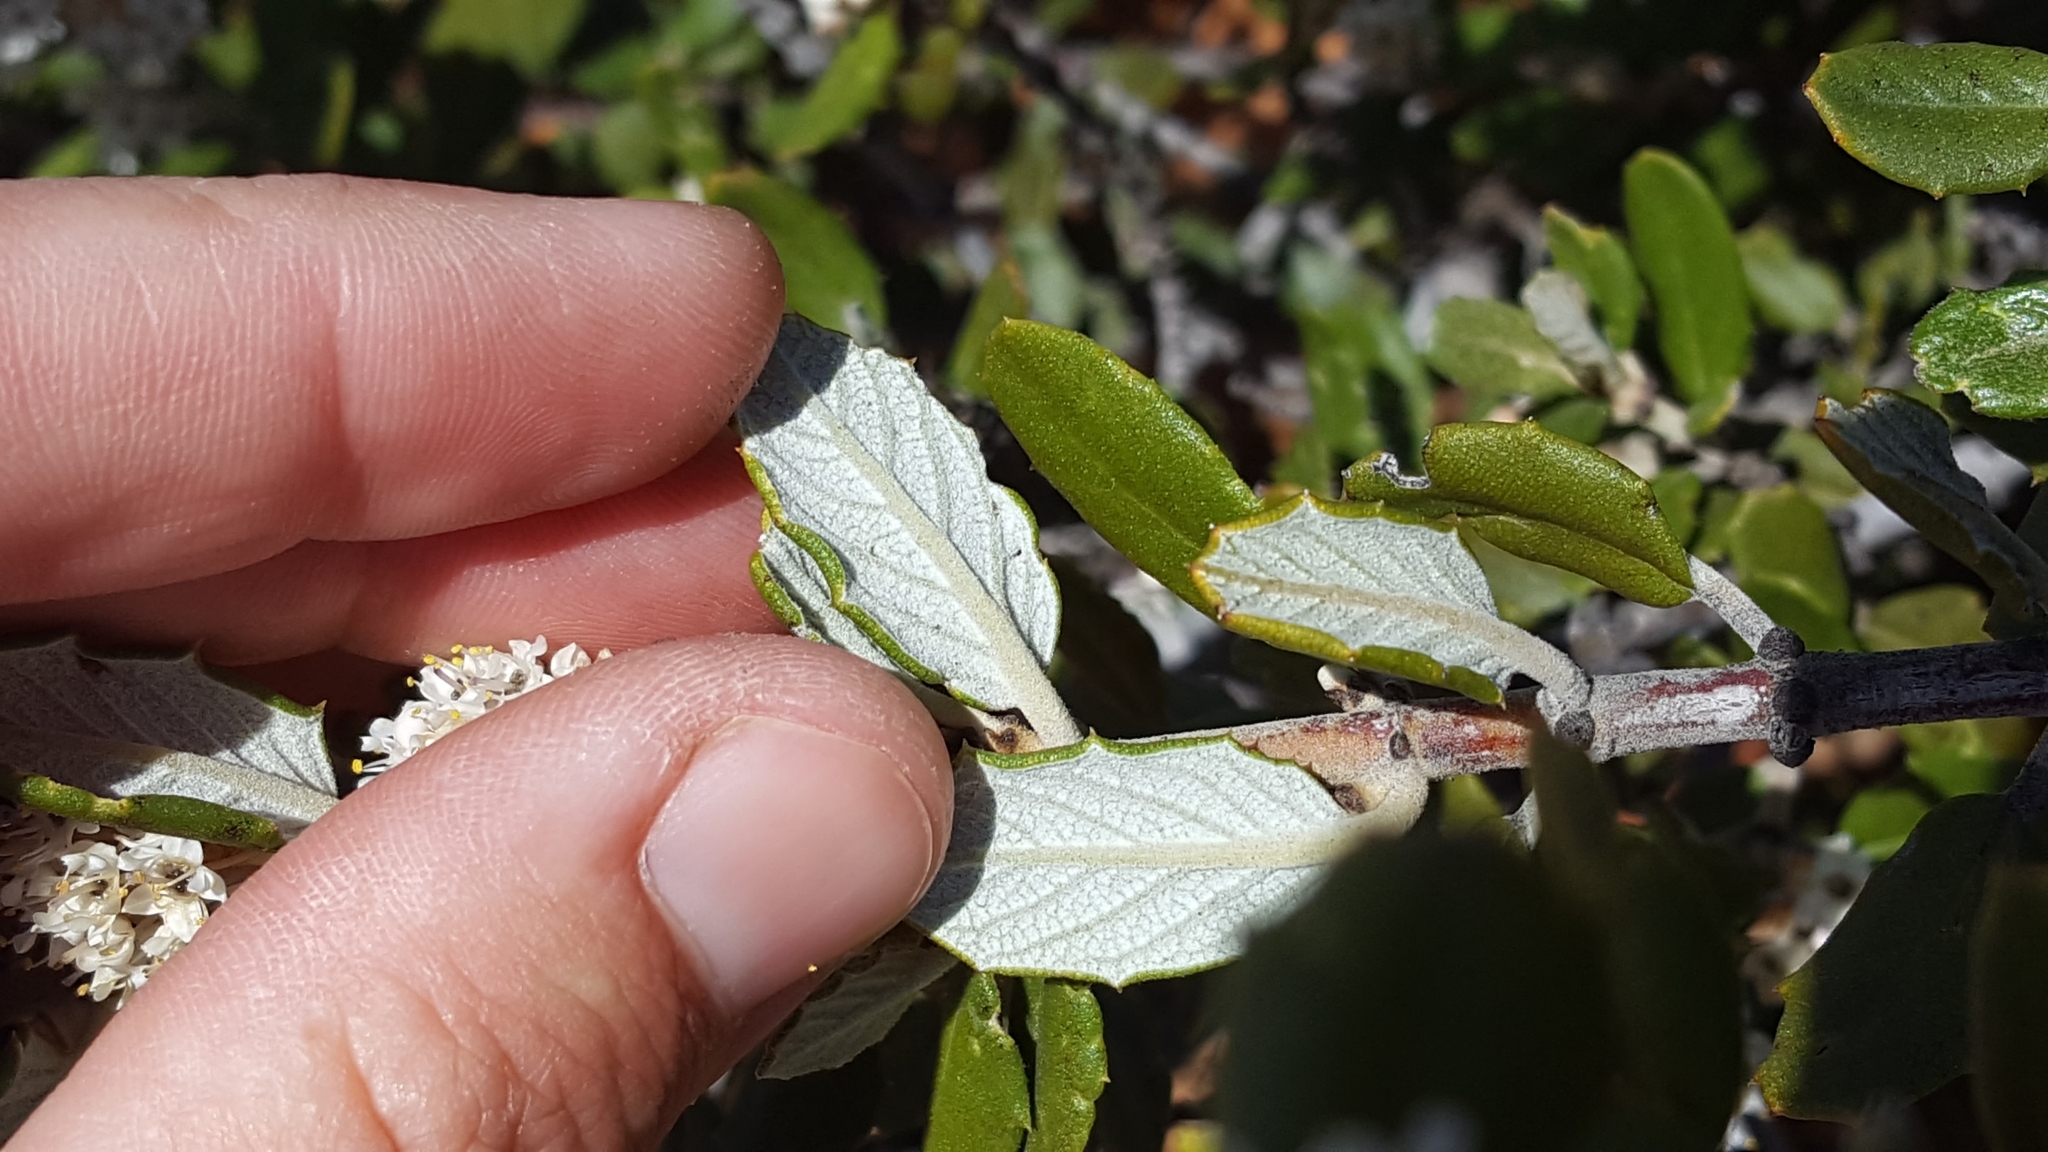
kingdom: Plantae
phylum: Tracheophyta
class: Magnoliopsida
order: Rosales
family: Rhamnaceae
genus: Ceanothus
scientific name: Ceanothus crassifolius
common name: Hoaryleaf ceanothus
